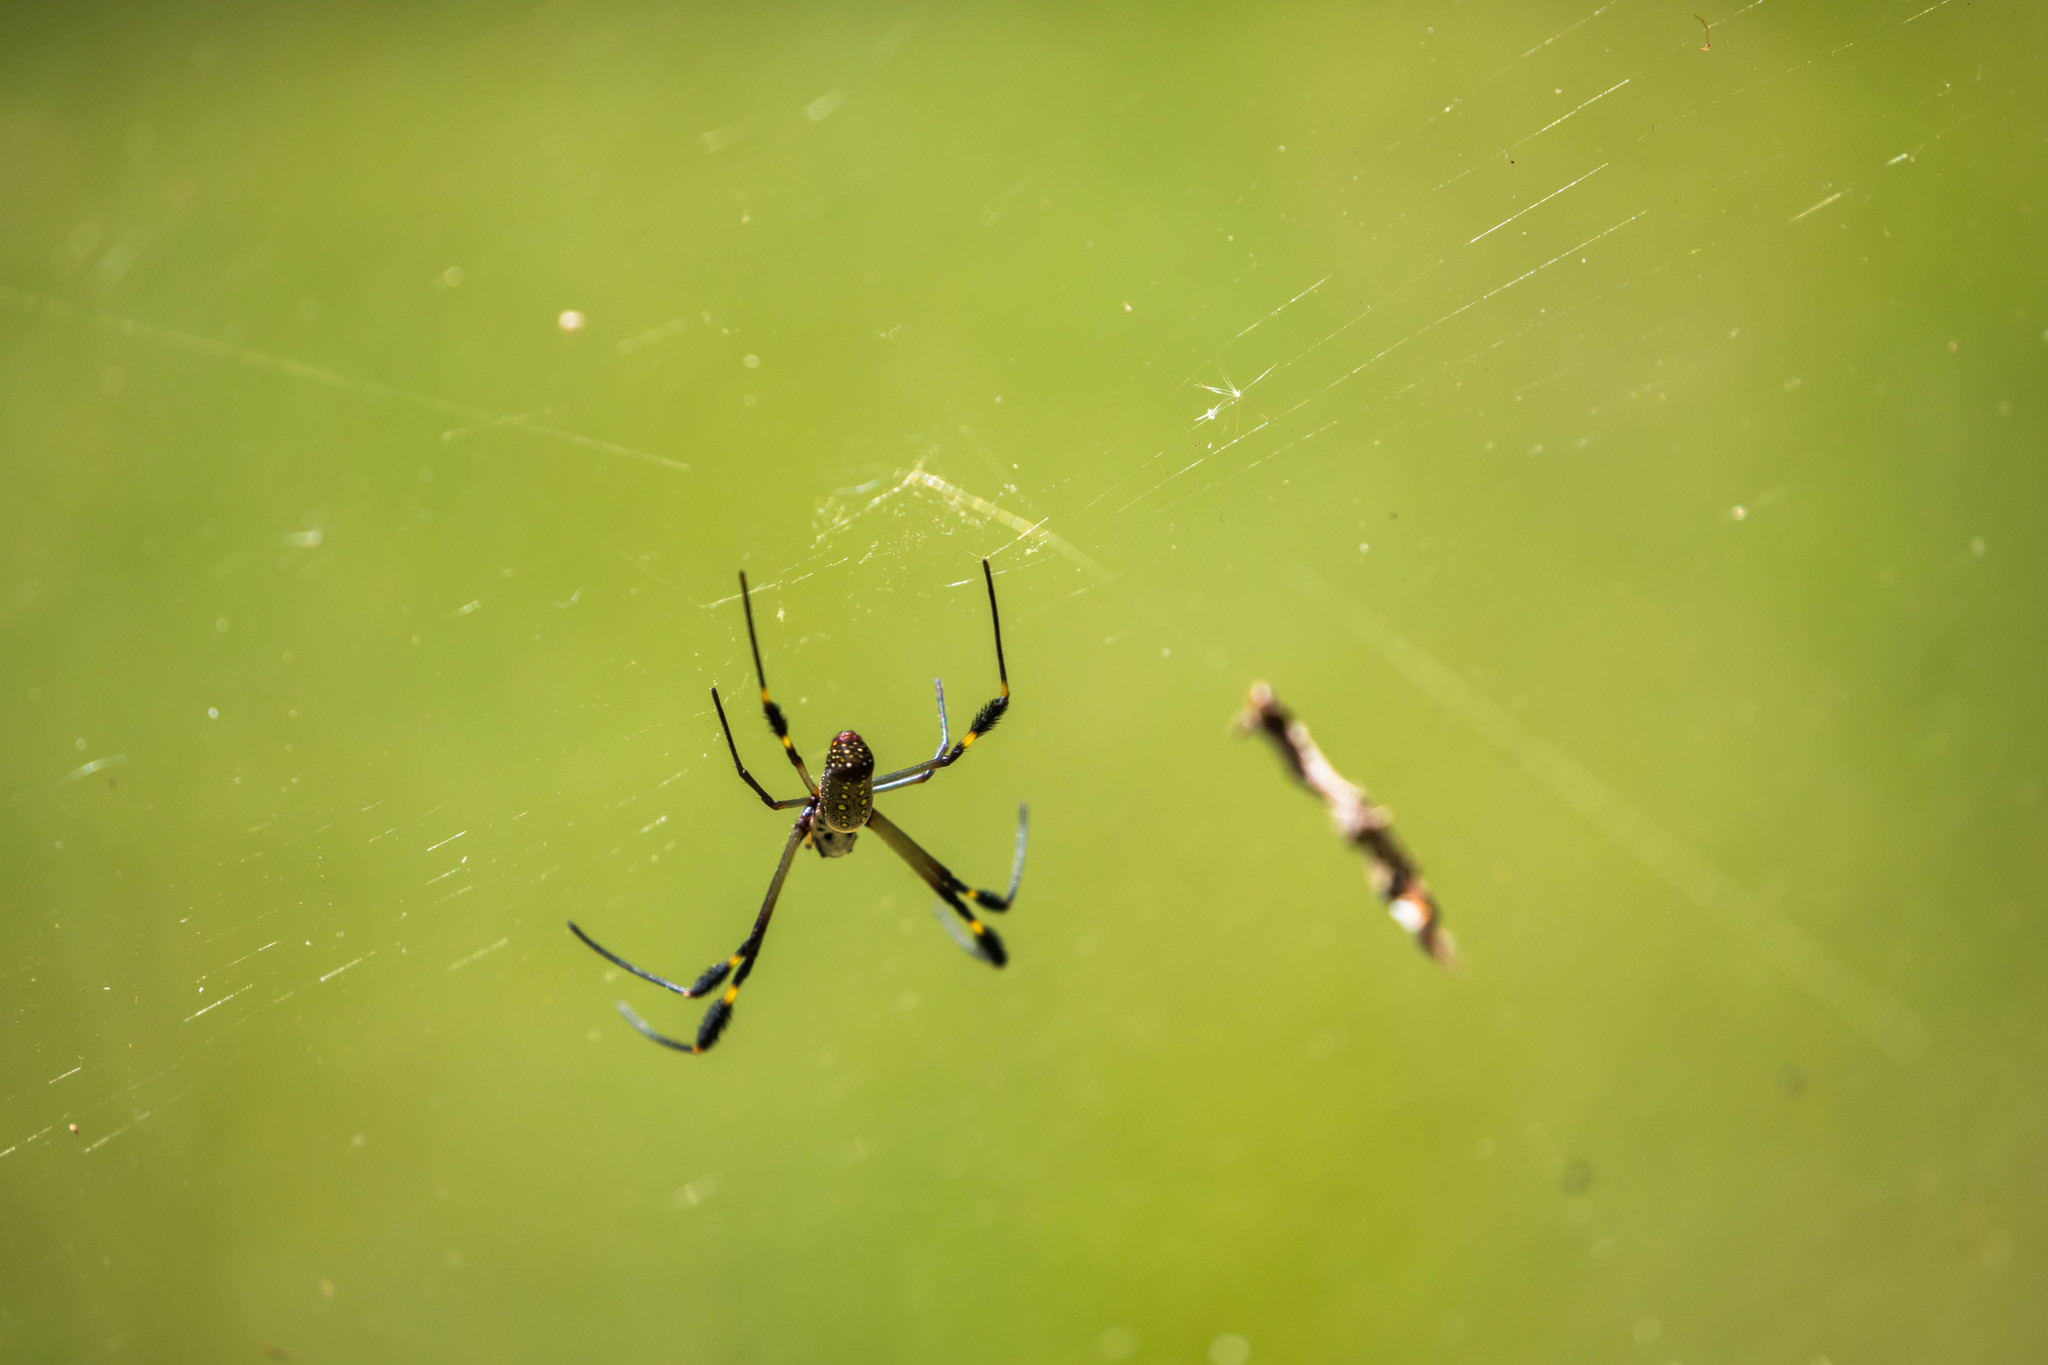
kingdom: Animalia
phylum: Arthropoda
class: Arachnida
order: Araneae
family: Araneidae
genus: Trichonephila
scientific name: Trichonephila clavipes
